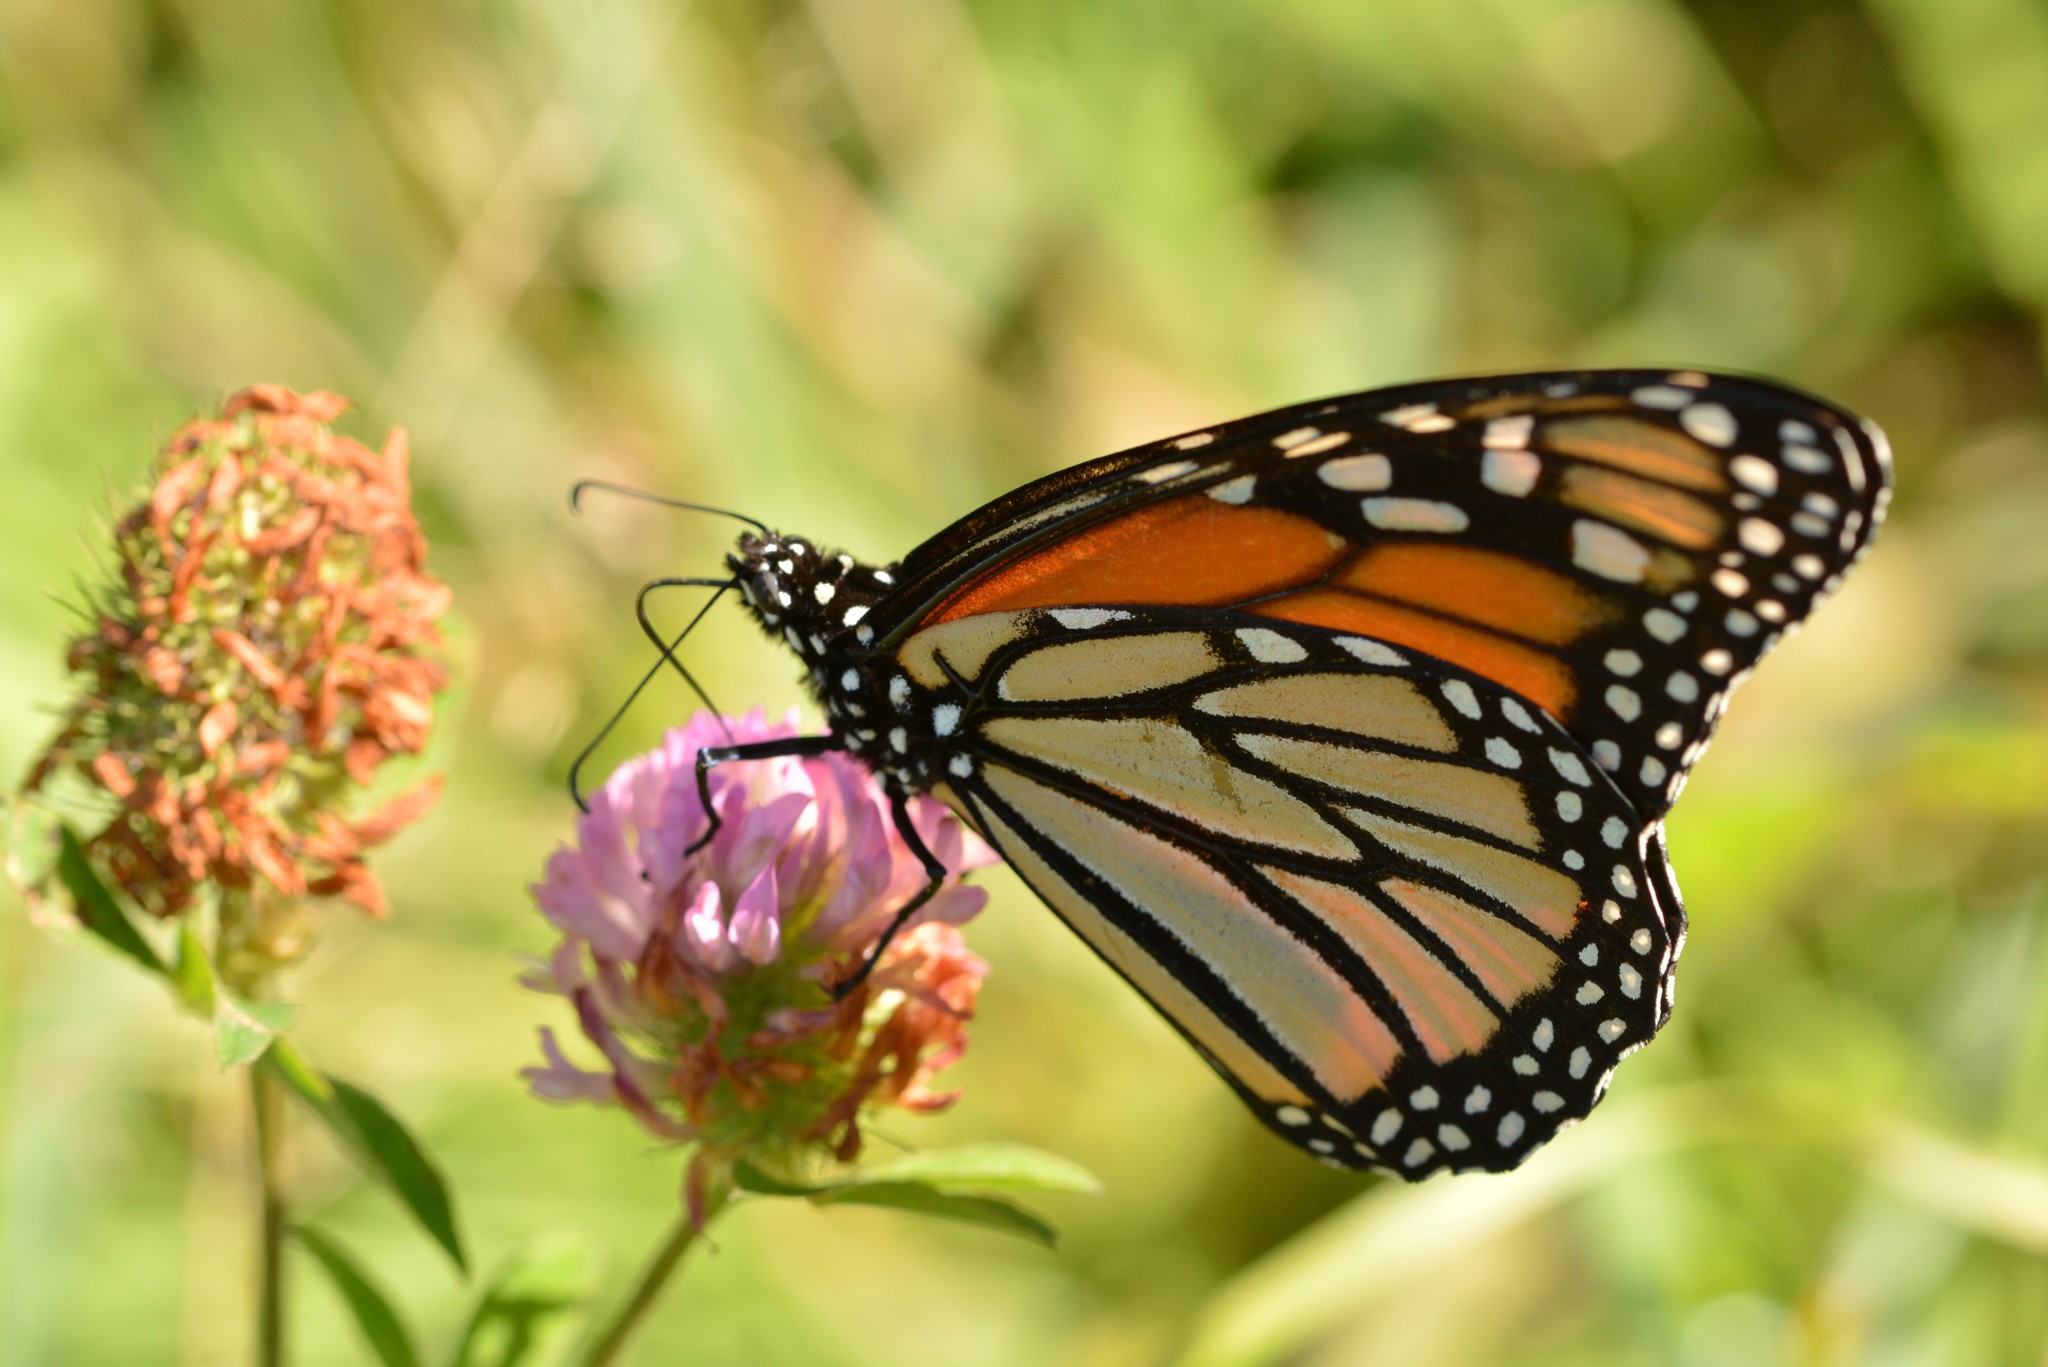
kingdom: Animalia
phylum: Arthropoda
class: Insecta
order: Lepidoptera
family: Nymphalidae
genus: Danaus
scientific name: Danaus plexippus
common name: Monarch
